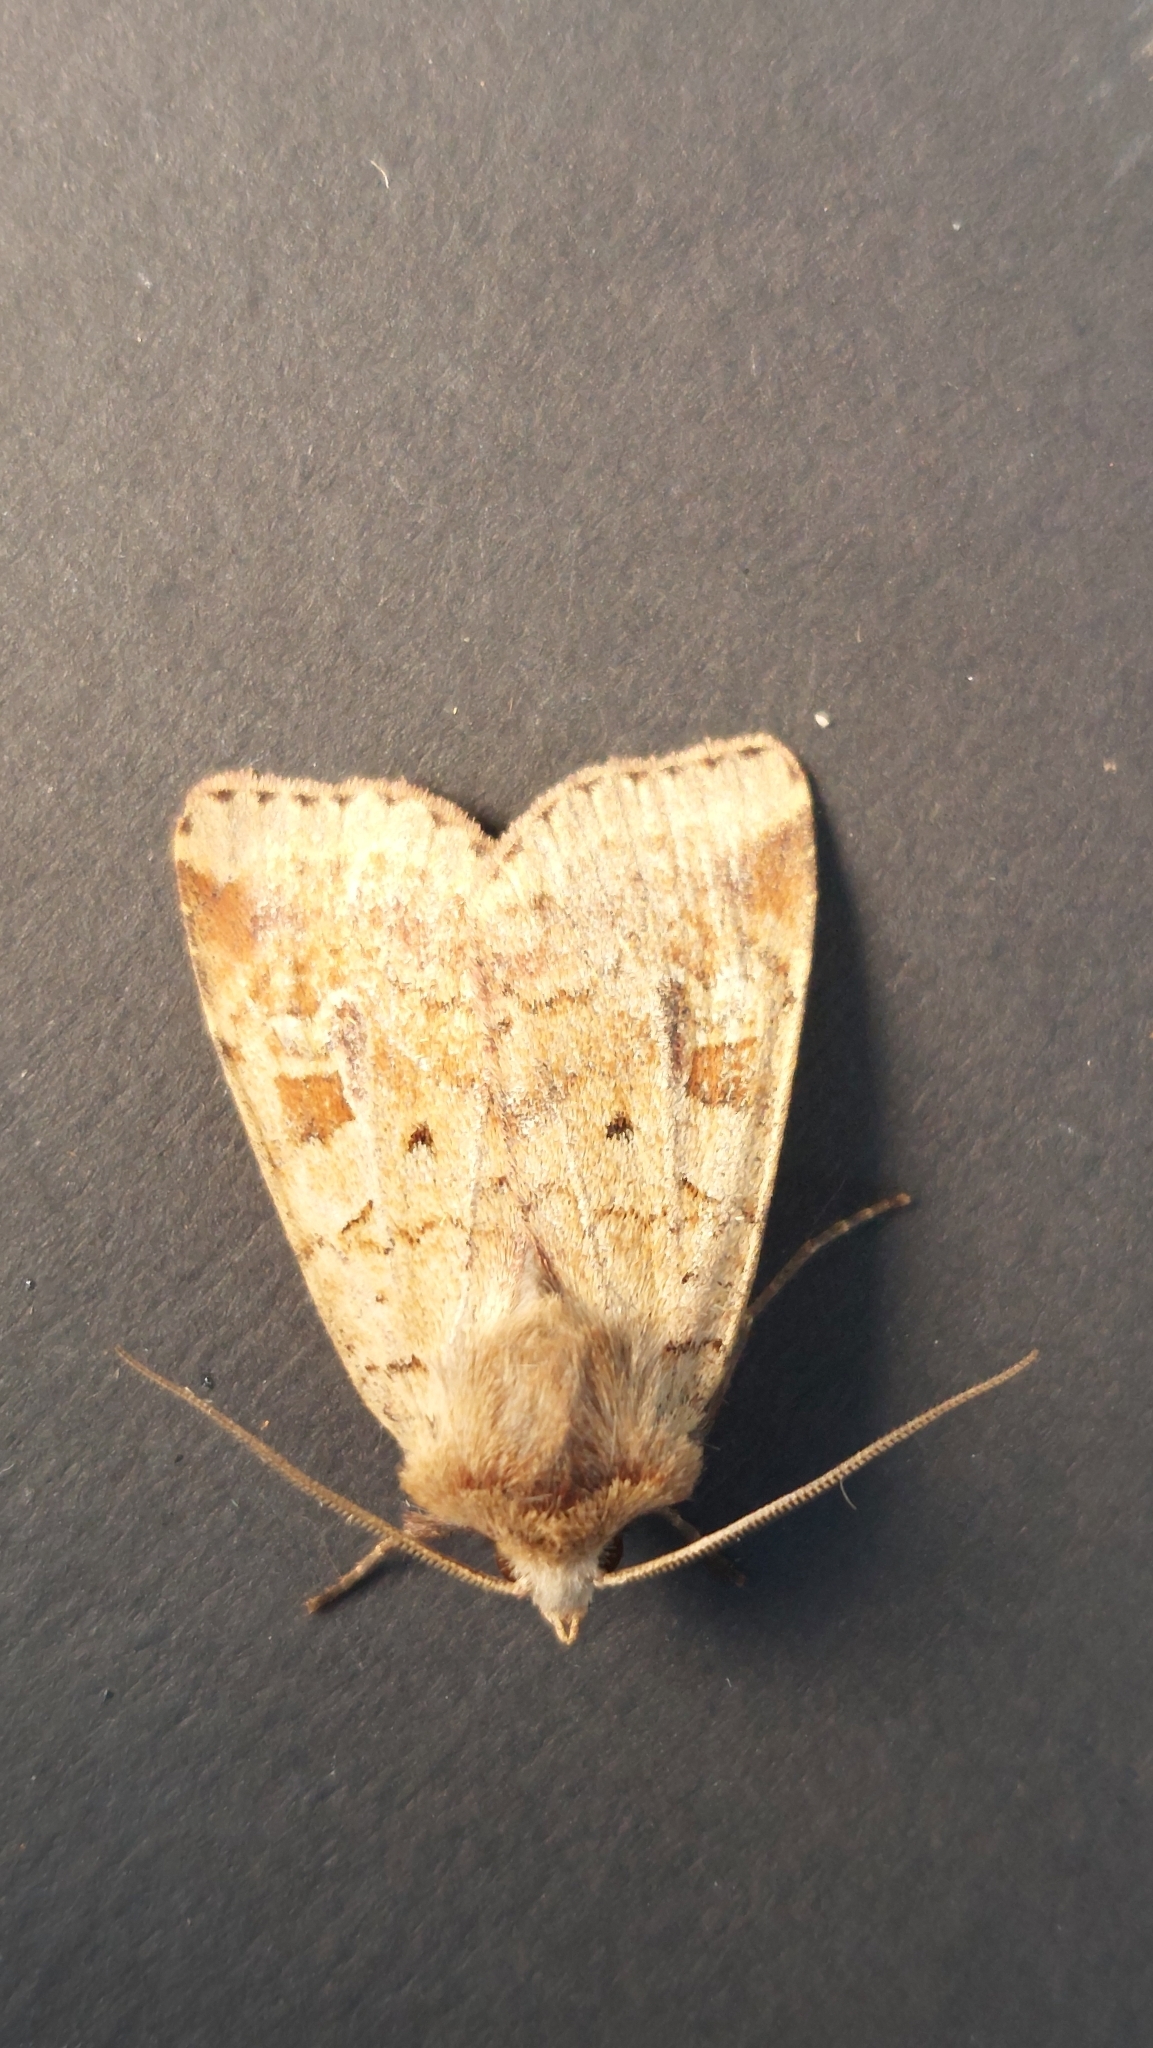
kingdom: Animalia
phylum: Arthropoda
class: Insecta
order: Lepidoptera
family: Noctuidae
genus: Diarsia
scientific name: Diarsia mendica
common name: Ingrailed clay
